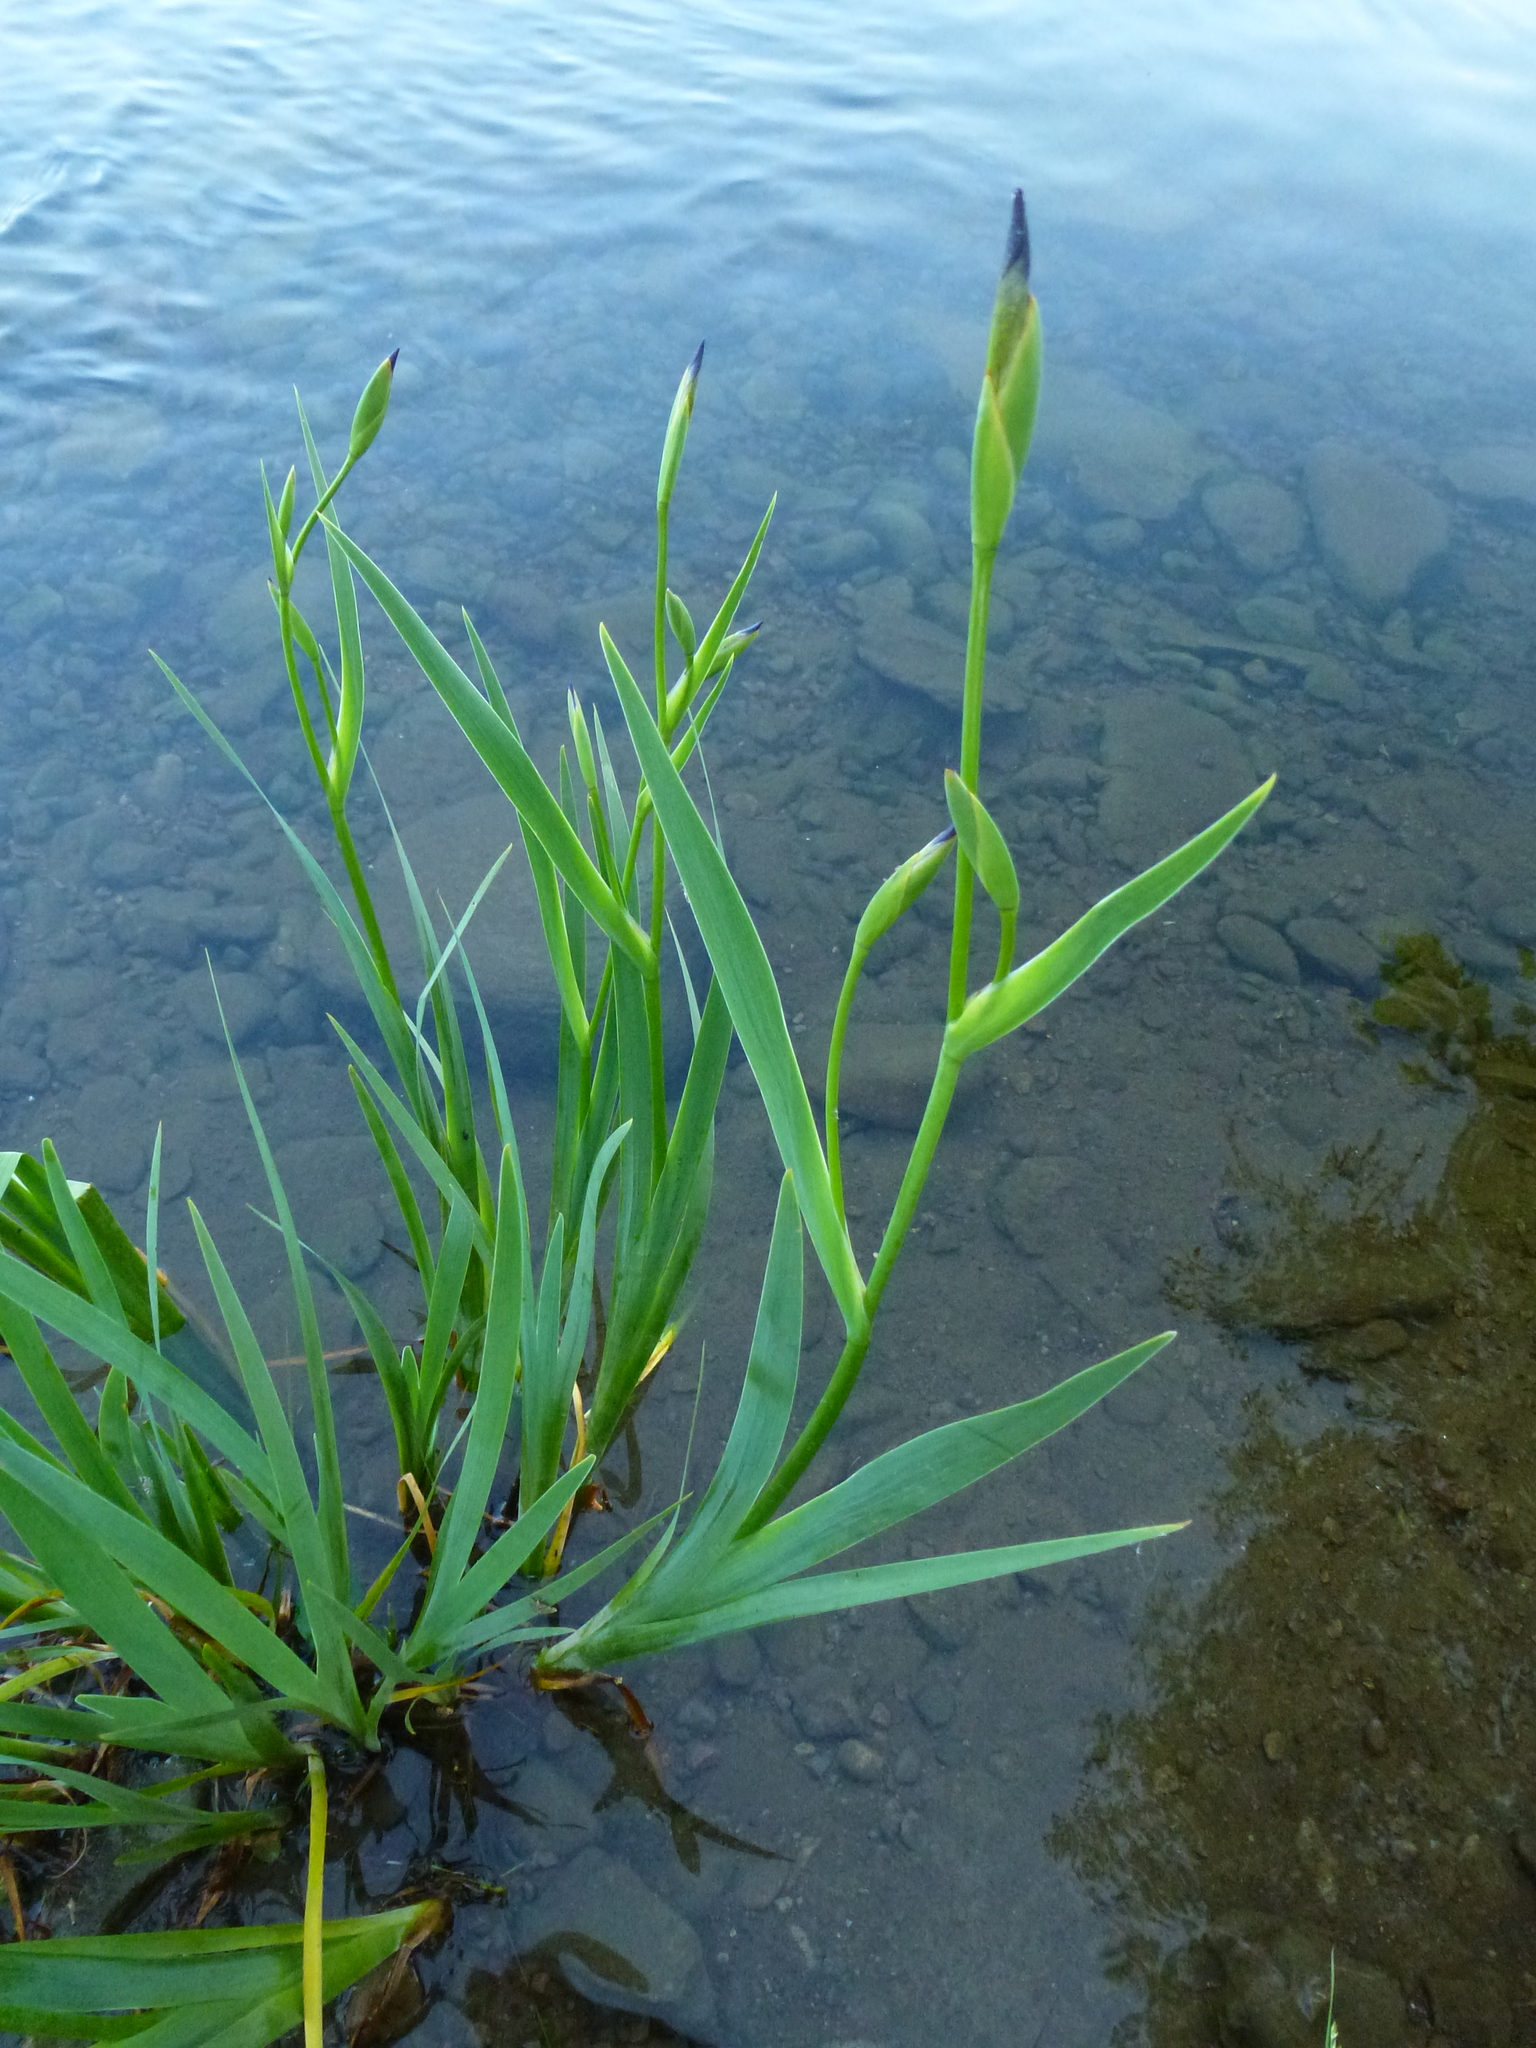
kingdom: Plantae
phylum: Tracheophyta
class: Liliopsida
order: Asparagales
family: Iridaceae
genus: Iris
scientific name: Iris versicolor
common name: Purple iris
